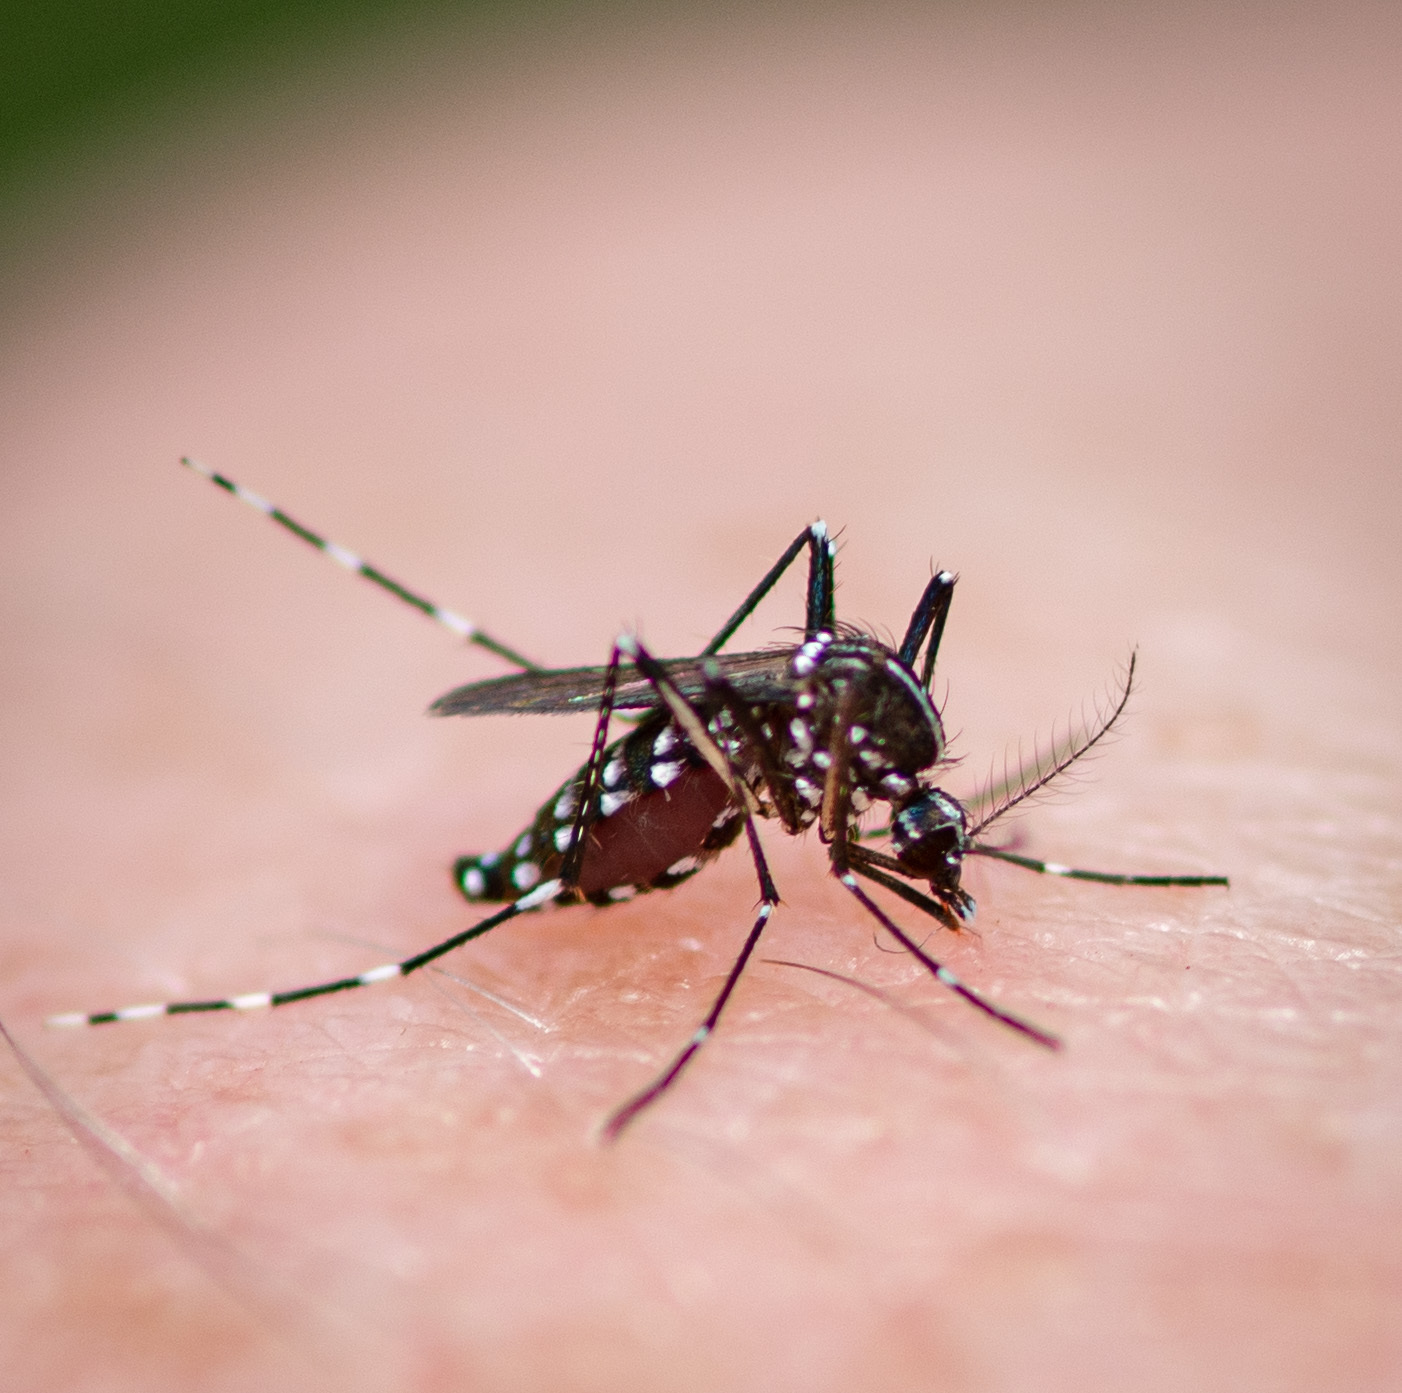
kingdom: Animalia
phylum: Arthropoda
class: Insecta
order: Diptera
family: Culicidae
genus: Aedes
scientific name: Aedes albopictus
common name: Tiger mosquito
